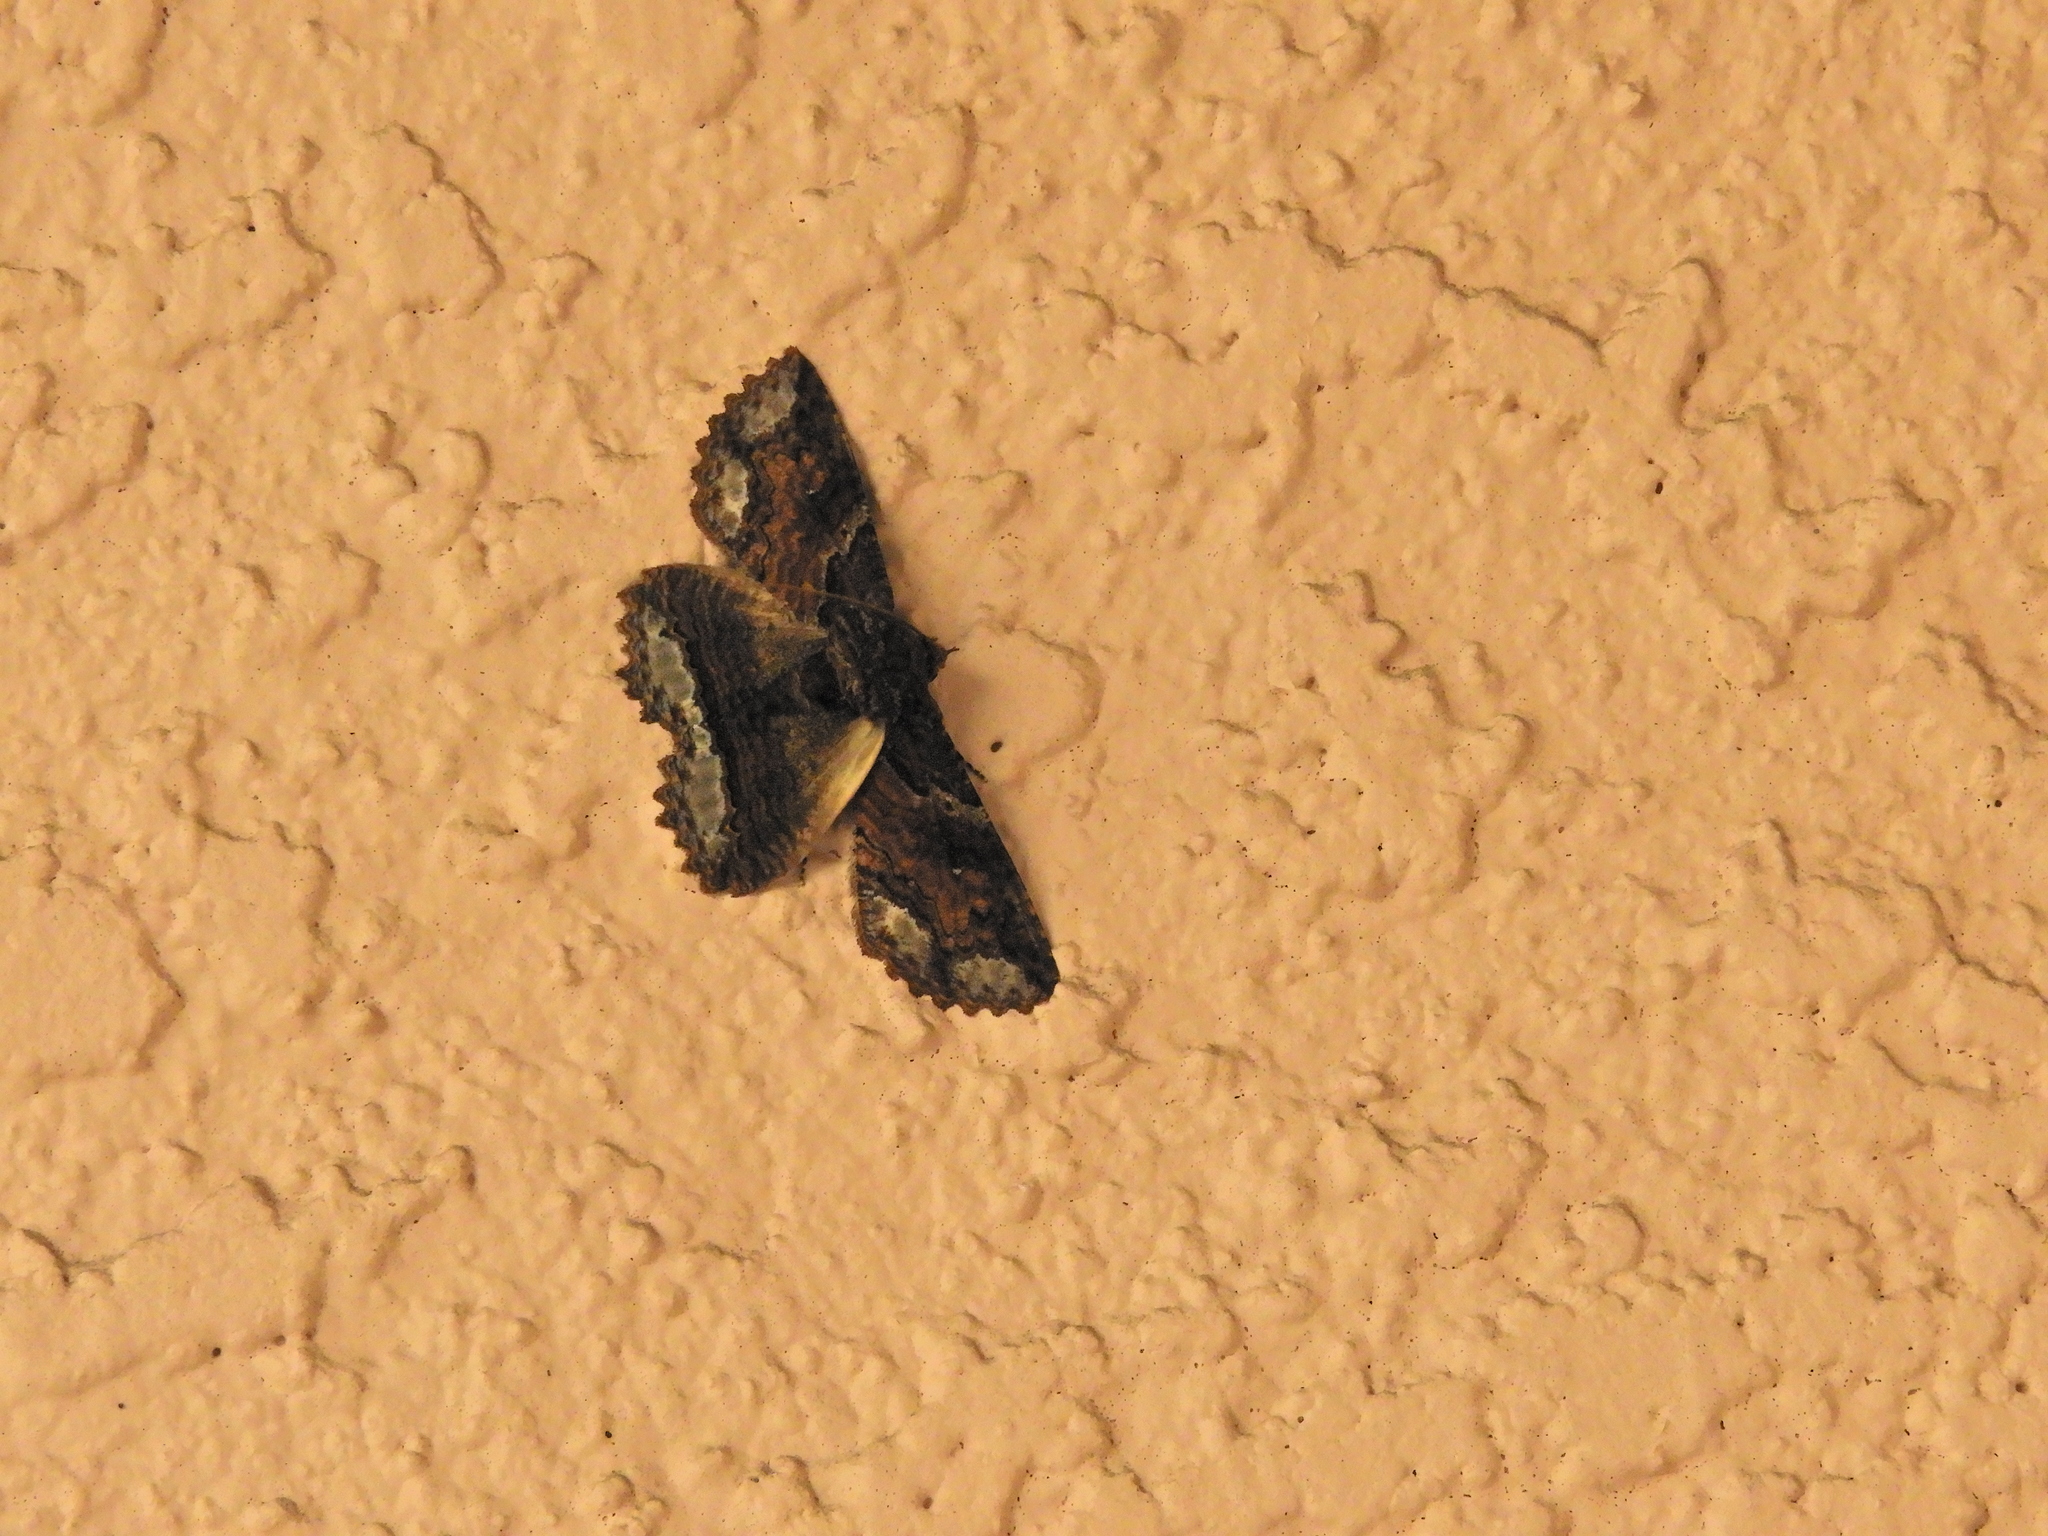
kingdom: Animalia
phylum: Arthropoda
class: Insecta
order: Lepidoptera
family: Erebidae
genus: Zale
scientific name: Zale lunata
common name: Lunate zale moth
